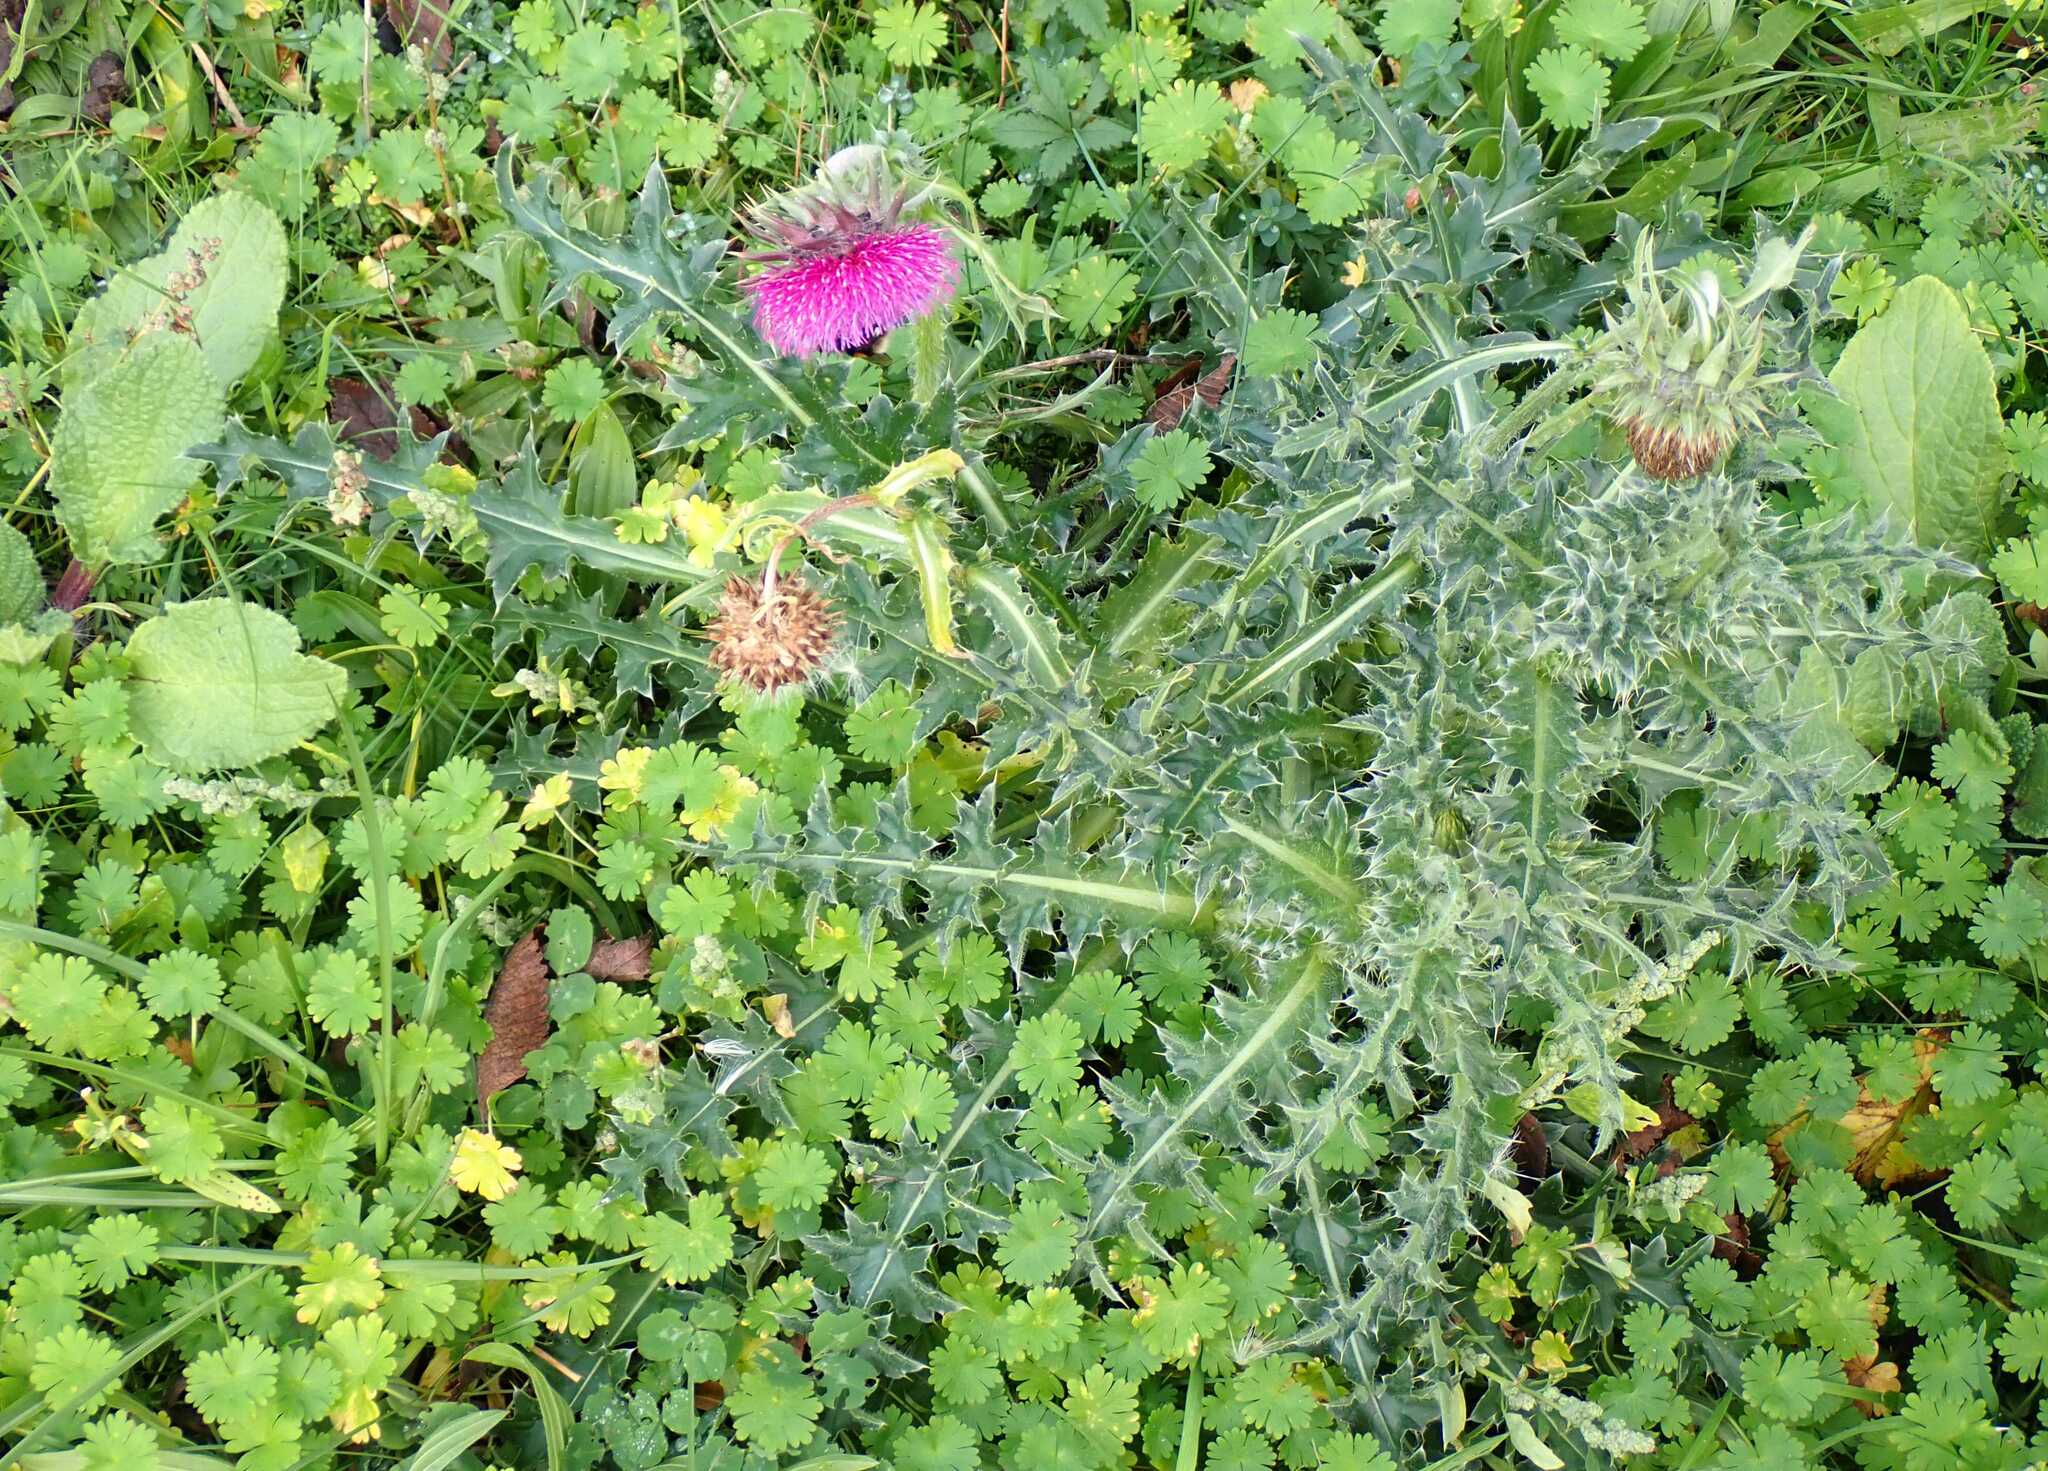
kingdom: Plantae
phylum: Tracheophyta
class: Magnoliopsida
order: Asterales
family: Asteraceae
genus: Carduus
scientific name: Carduus nutans
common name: Musk thistle
